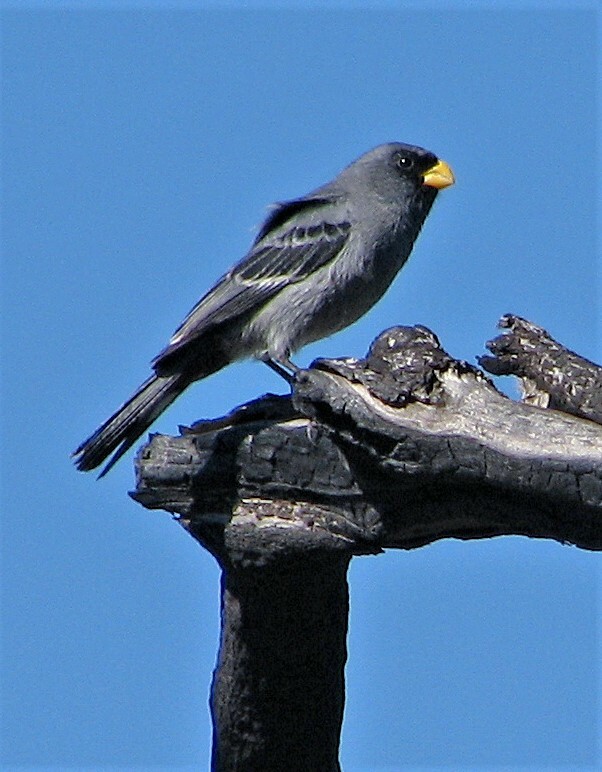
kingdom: Animalia
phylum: Chordata
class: Aves
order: Passeriformes
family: Thraupidae
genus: Catamenia
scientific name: Catamenia analis
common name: Band-tailed seedeater
